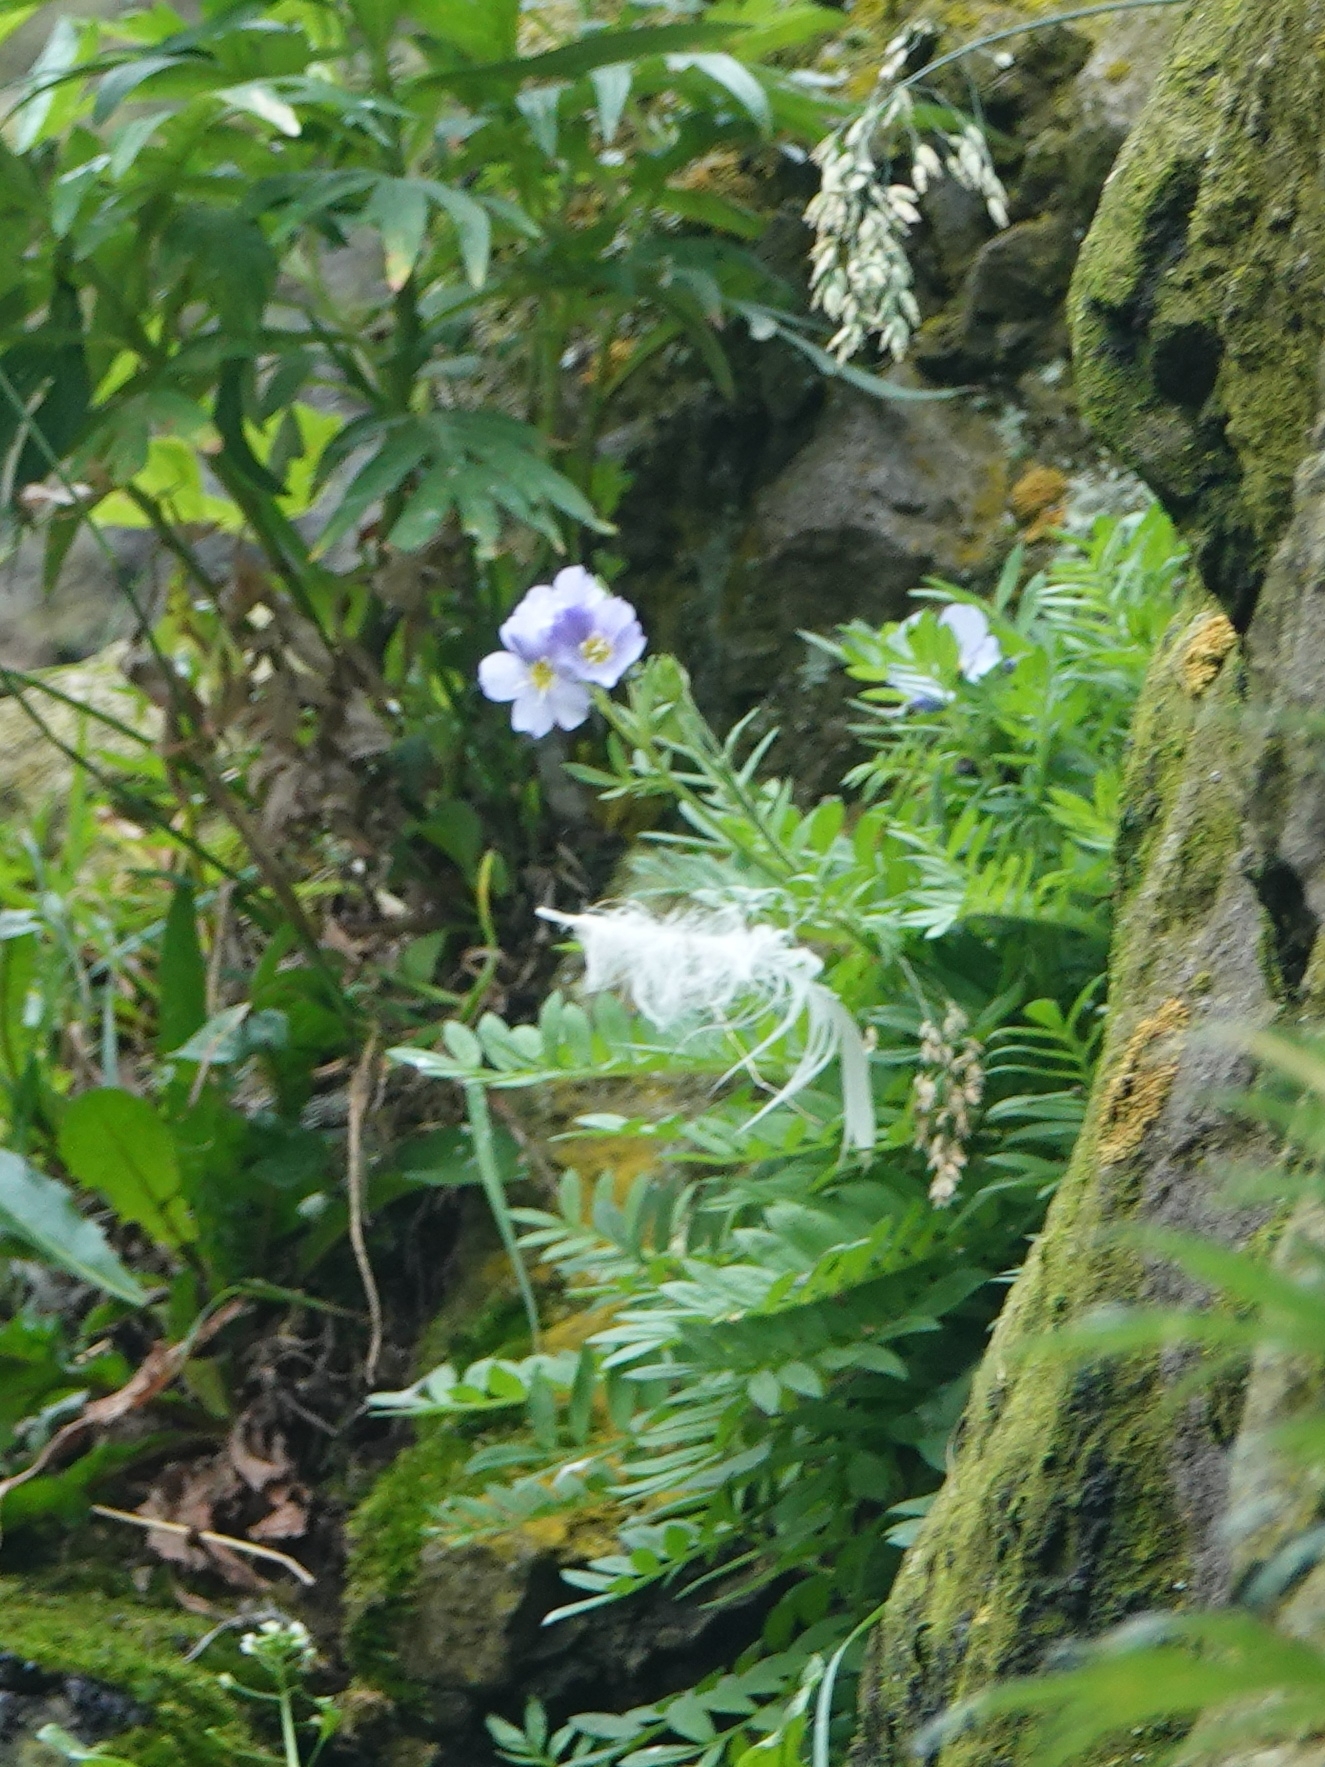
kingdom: Plantae
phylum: Tracheophyta
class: Magnoliopsida
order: Ericales
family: Polemoniaceae
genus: Polemonium
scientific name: Polemonium boreale
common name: Boreal jacob's-ladder
